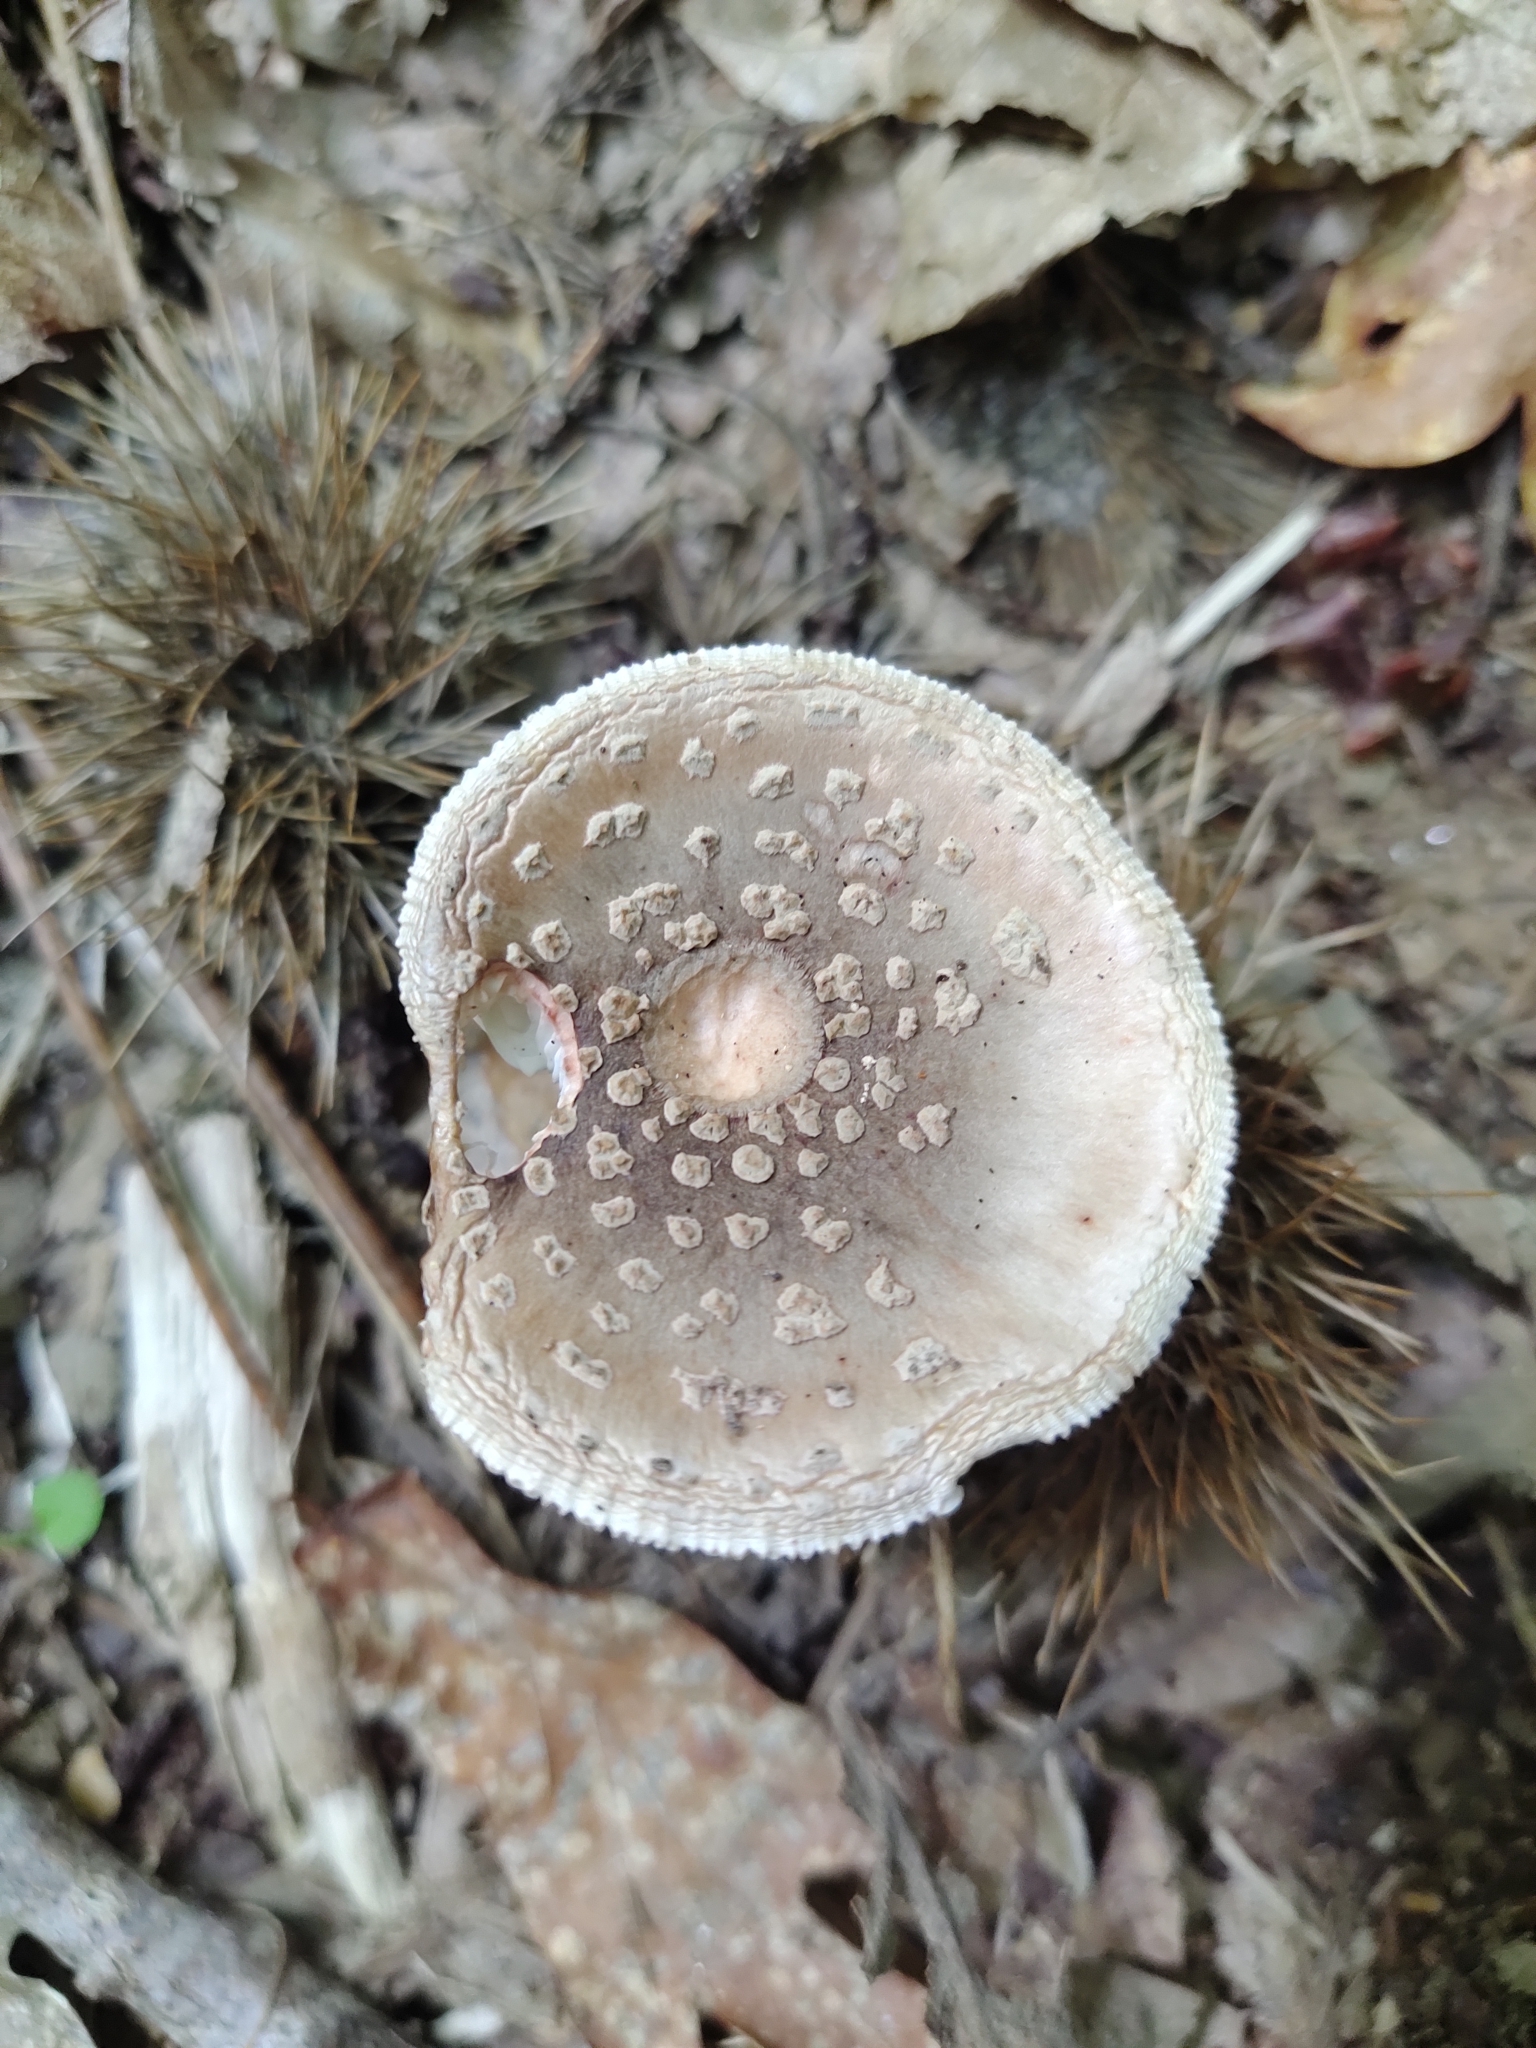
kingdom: Fungi
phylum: Basidiomycota
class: Agaricomycetes
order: Agaricales
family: Amanitaceae
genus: Amanita
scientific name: Amanita rubescens
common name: Blusher
